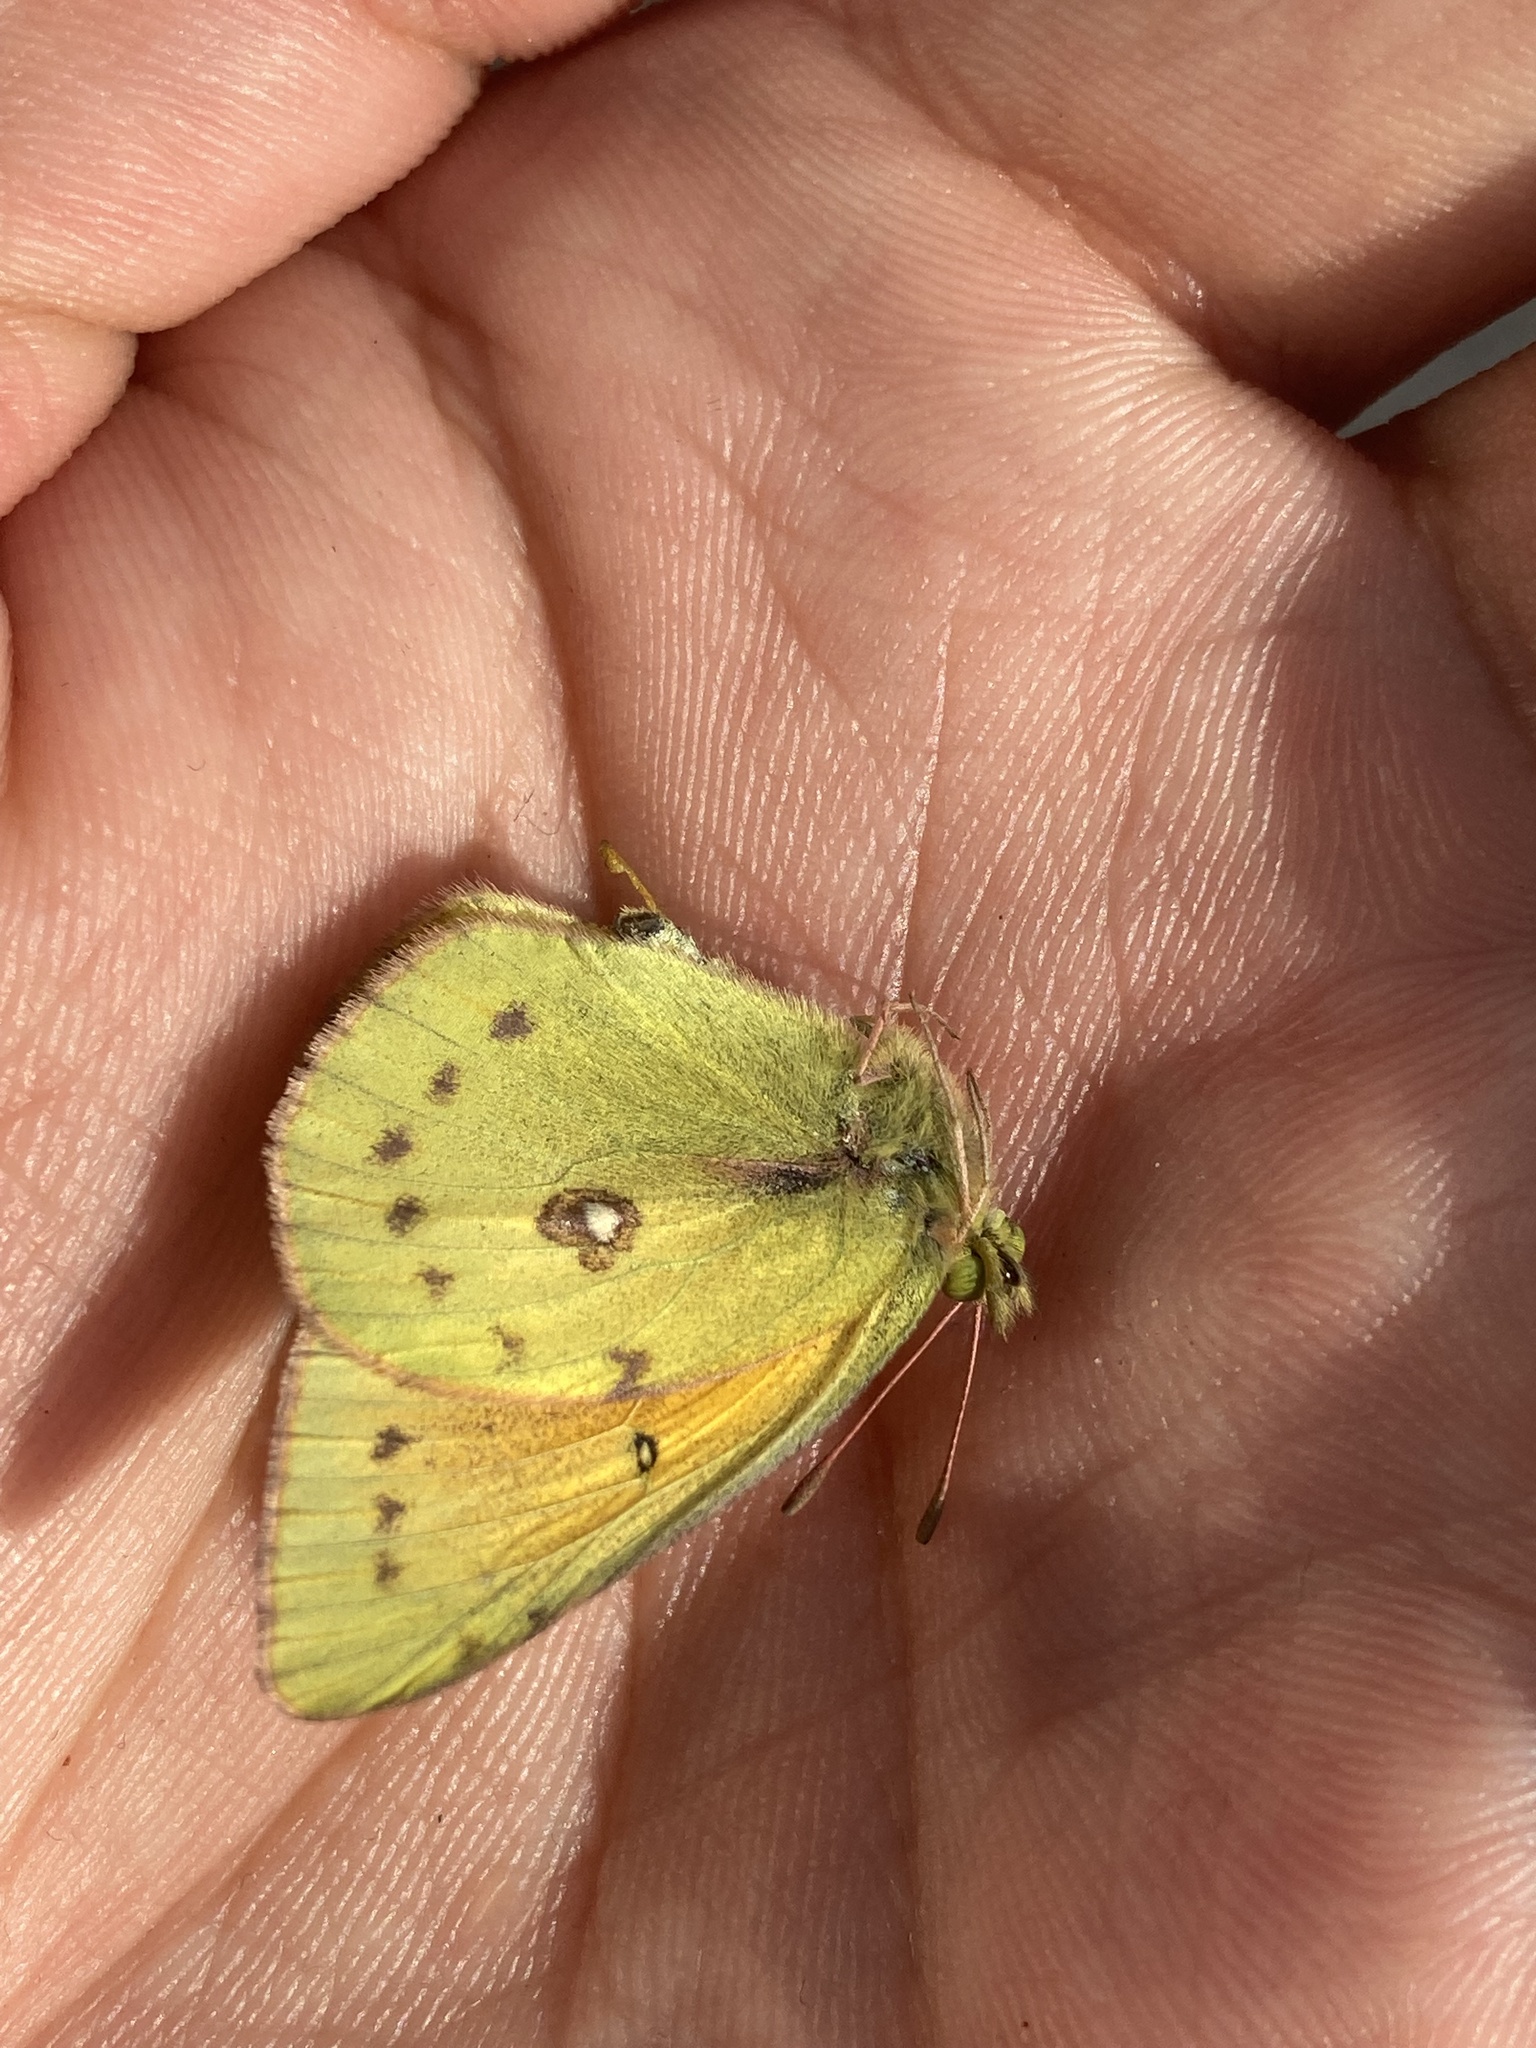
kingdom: Animalia
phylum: Arthropoda
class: Insecta
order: Lepidoptera
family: Pieridae
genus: Colias
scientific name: Colias lesbia
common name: Lesbia clouded yellow
